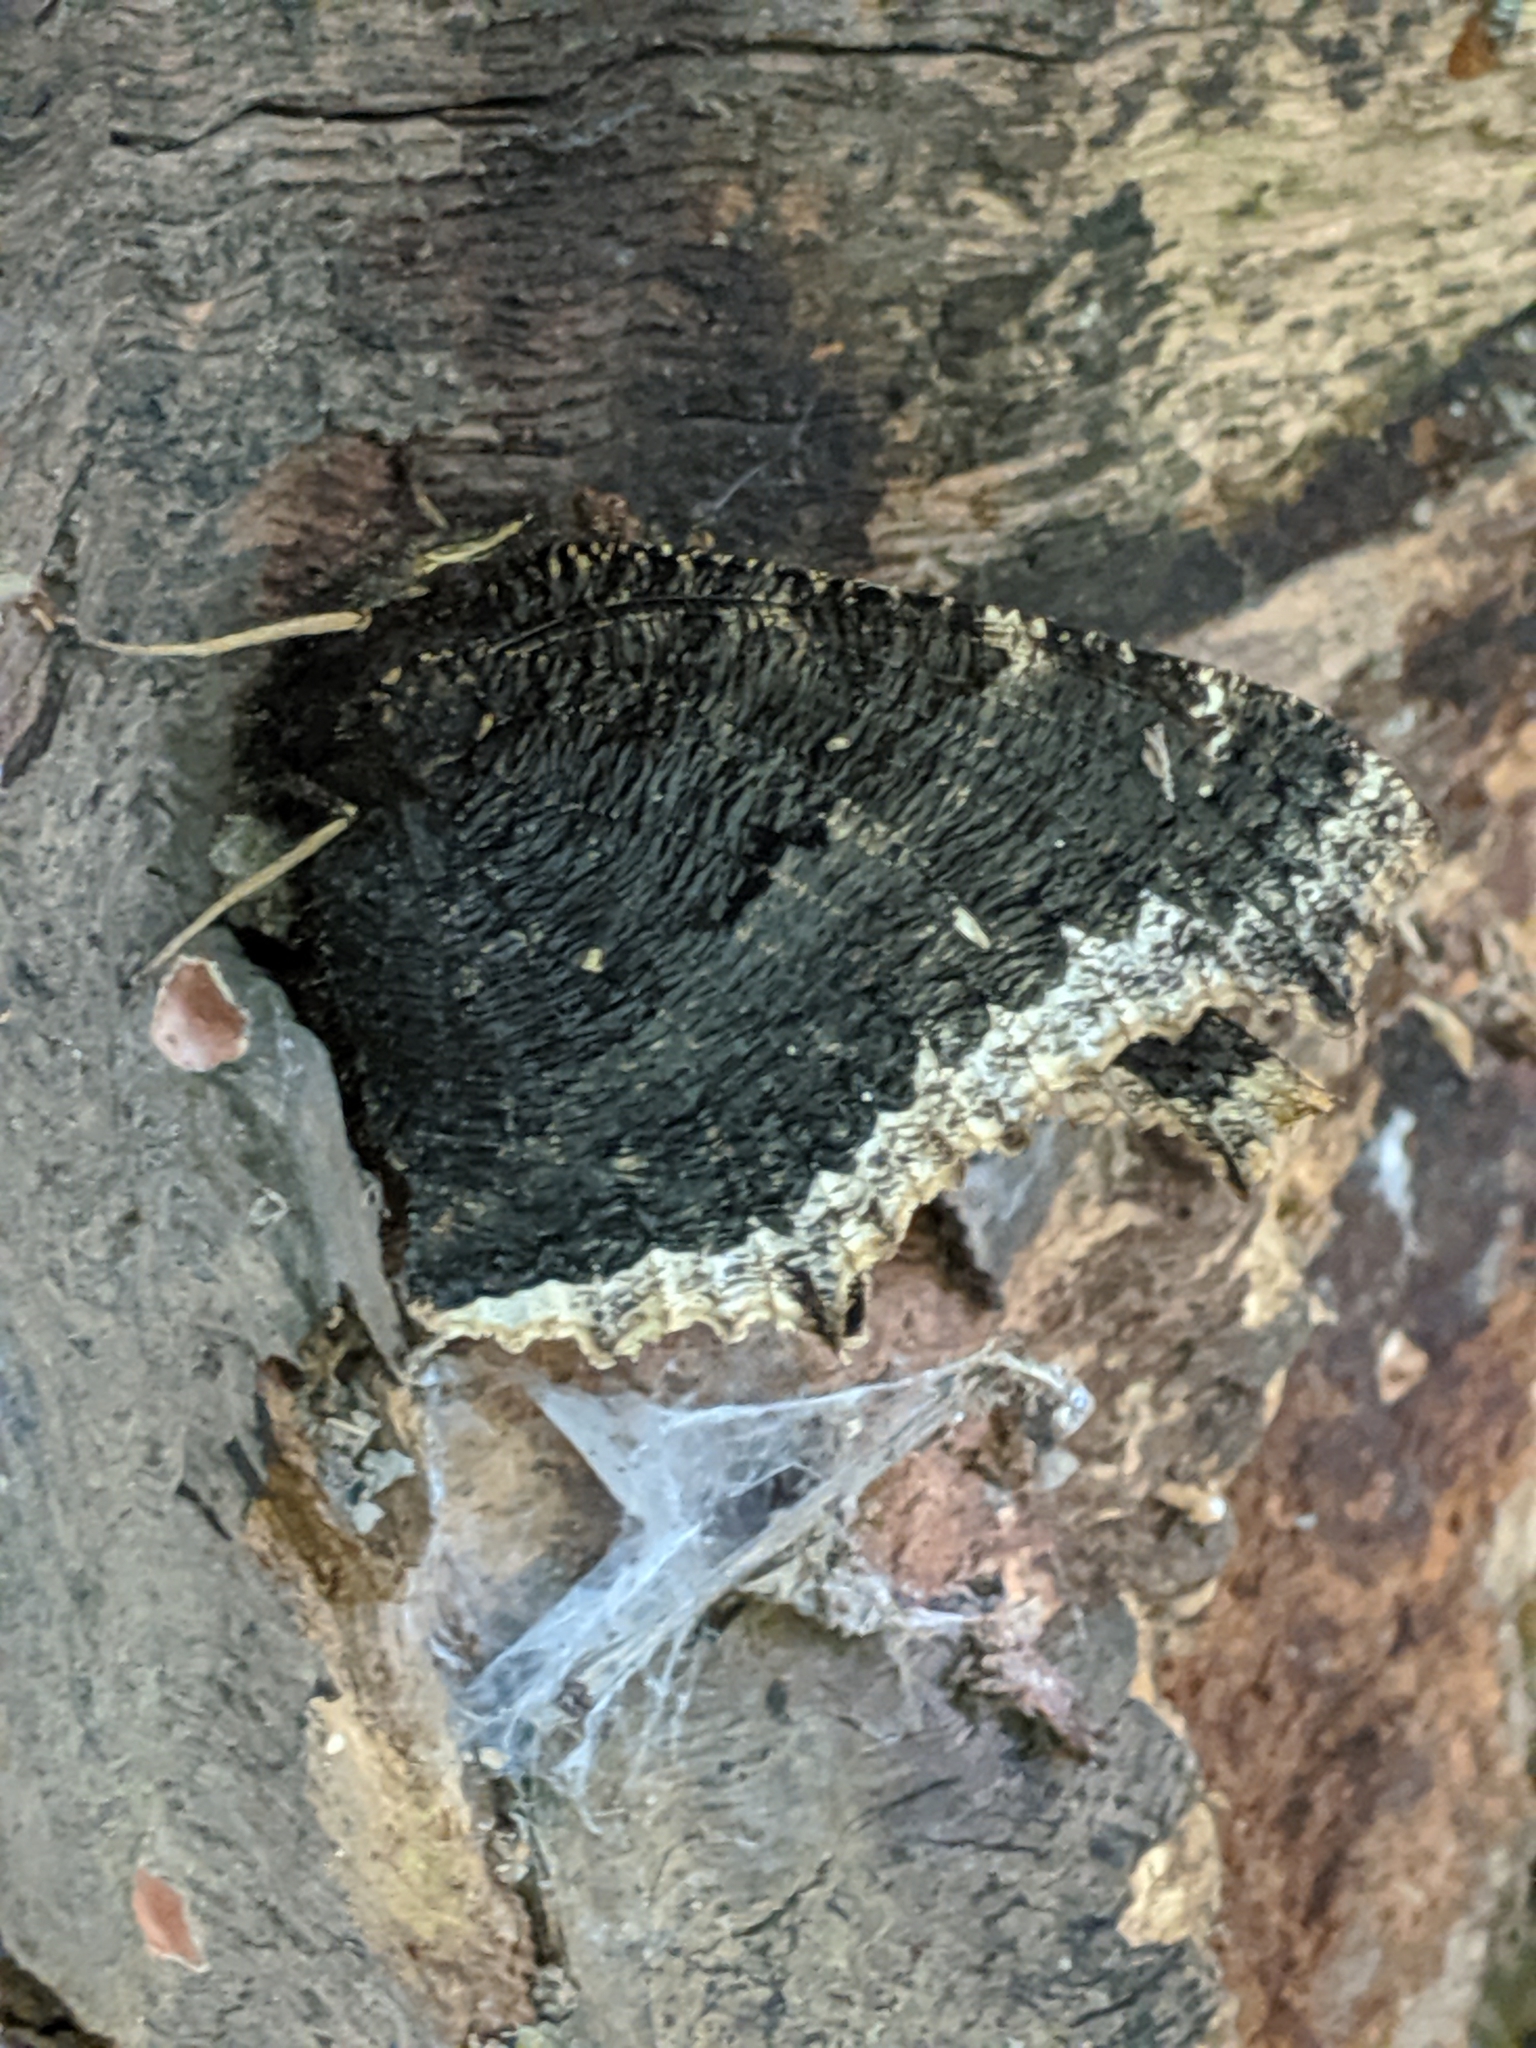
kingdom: Animalia
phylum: Arthropoda
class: Insecta
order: Lepidoptera
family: Nymphalidae
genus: Nymphalis
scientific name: Nymphalis antiopa
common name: Camberwell beauty
